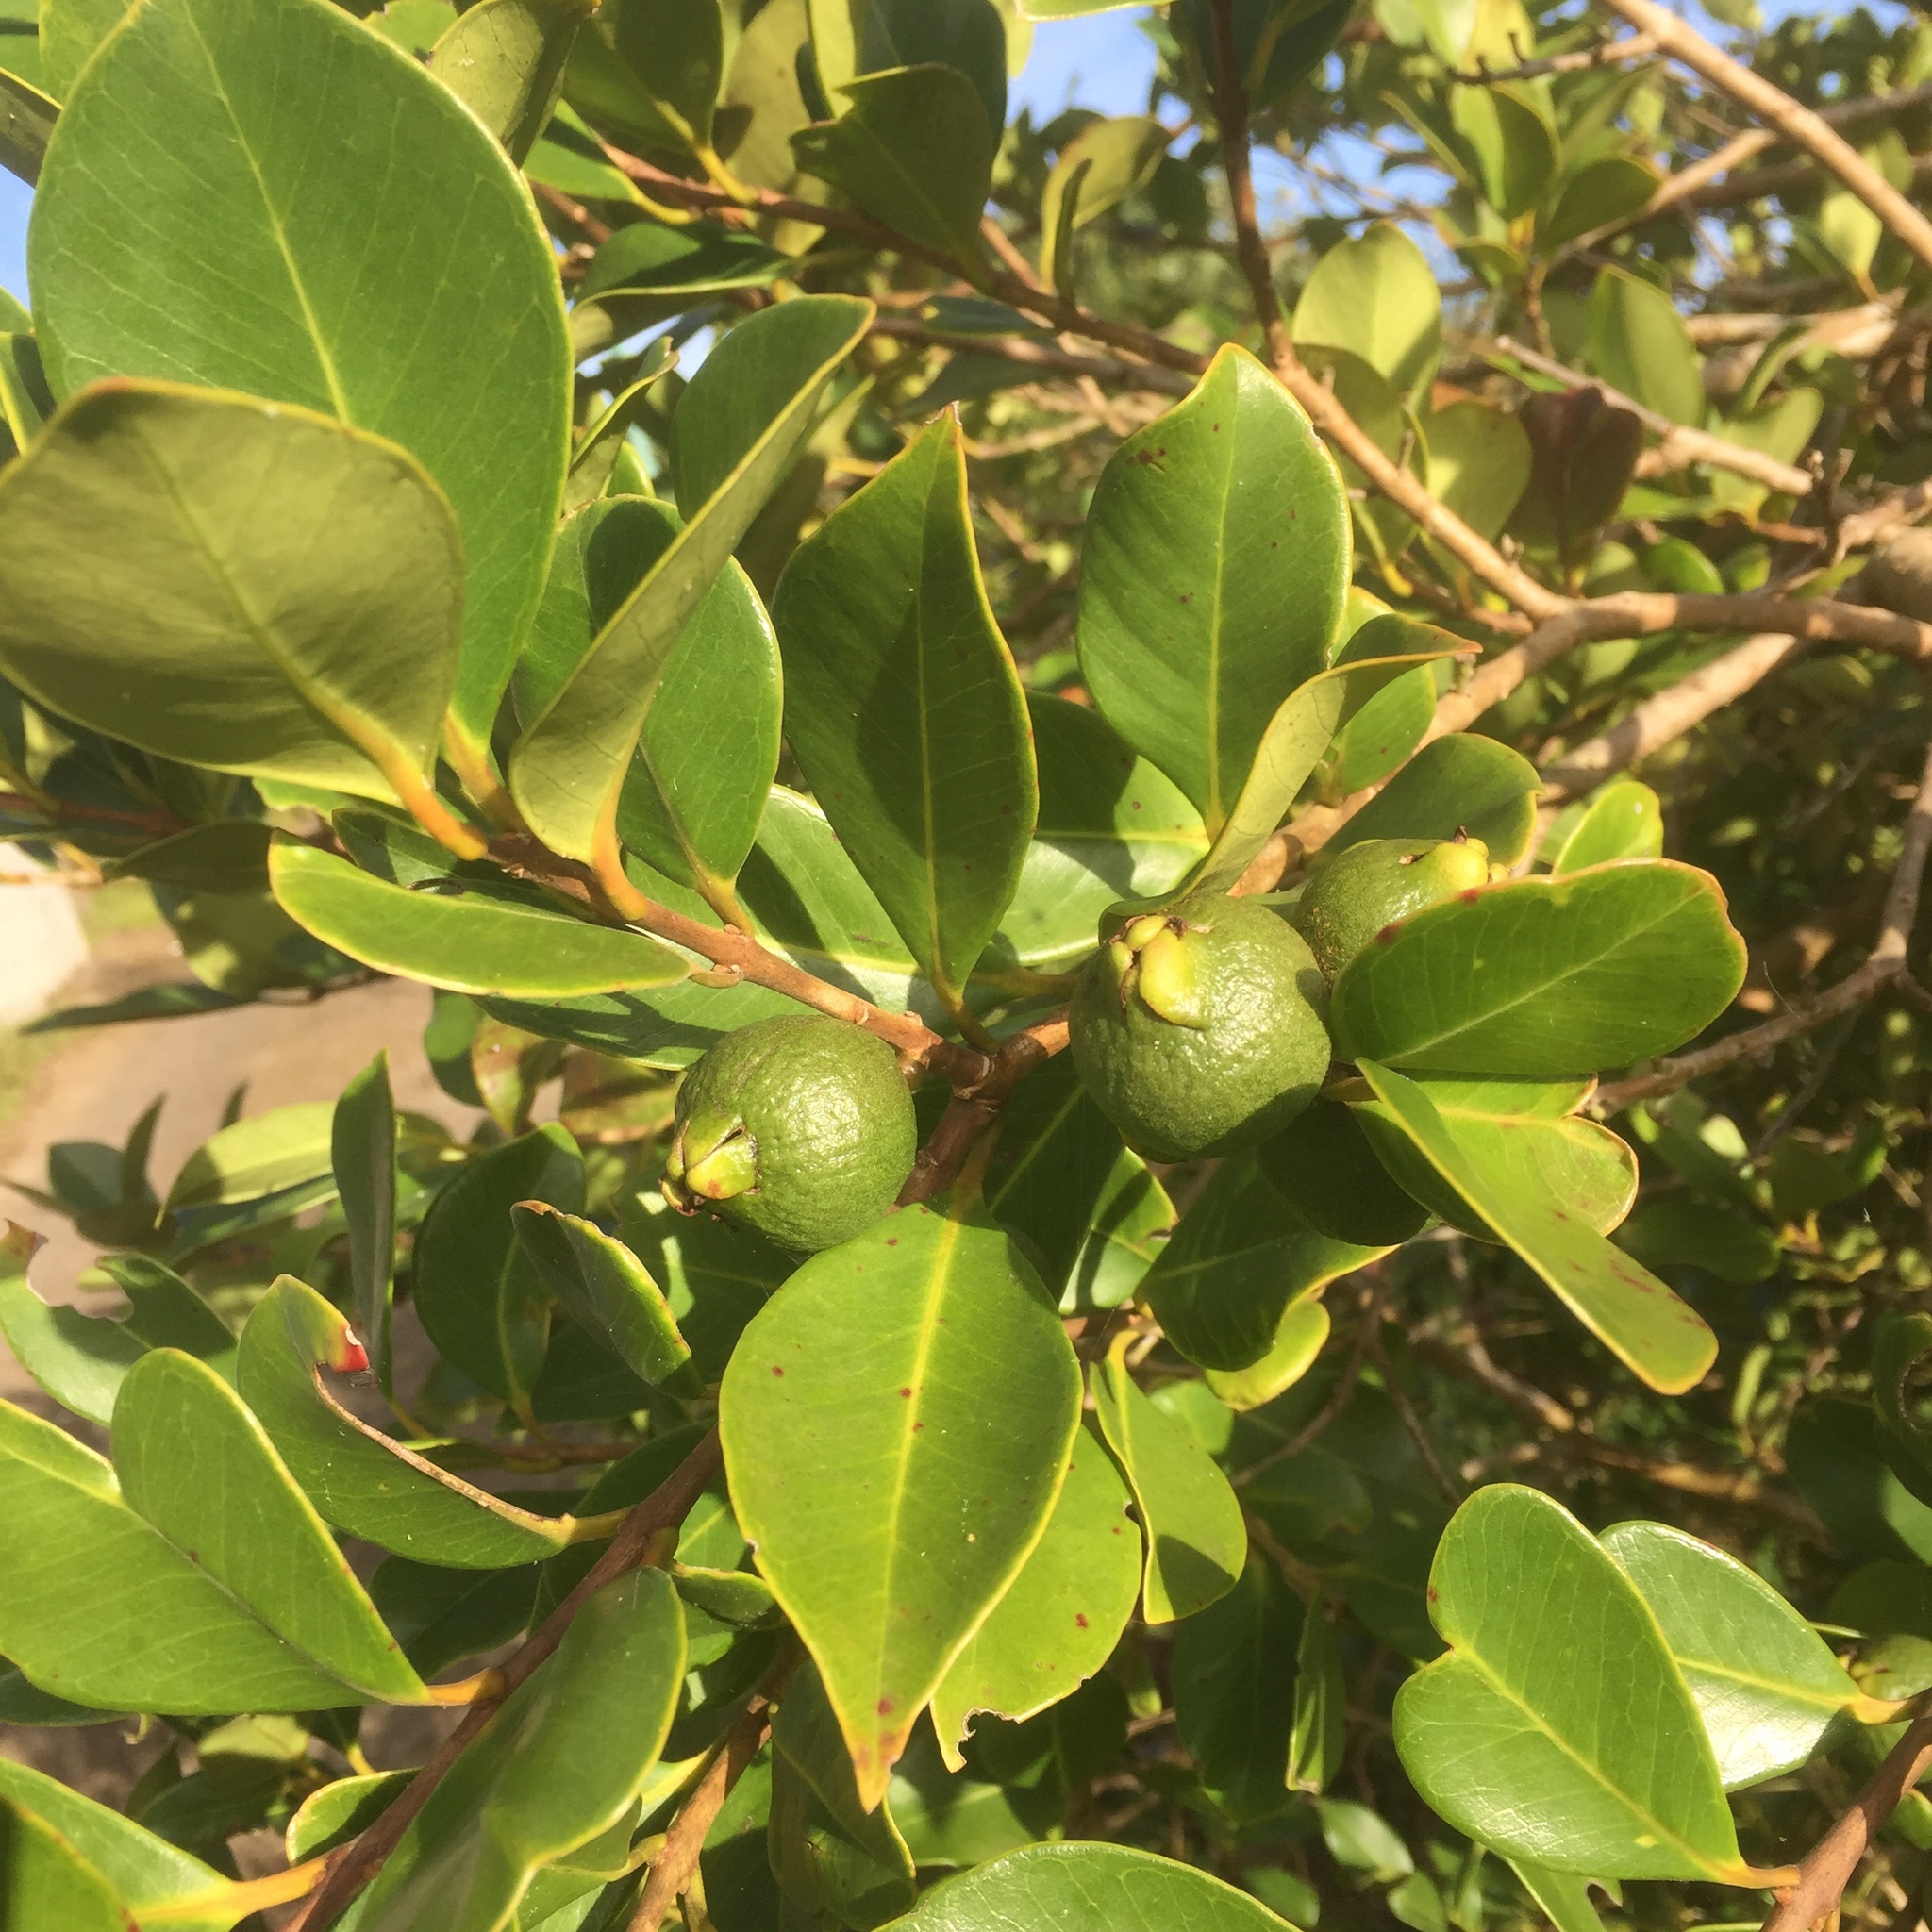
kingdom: Plantae
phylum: Tracheophyta
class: Magnoliopsida
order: Myrtales
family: Myrtaceae
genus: Psidium
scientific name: Psidium cattleianum
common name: Strawberry guava
